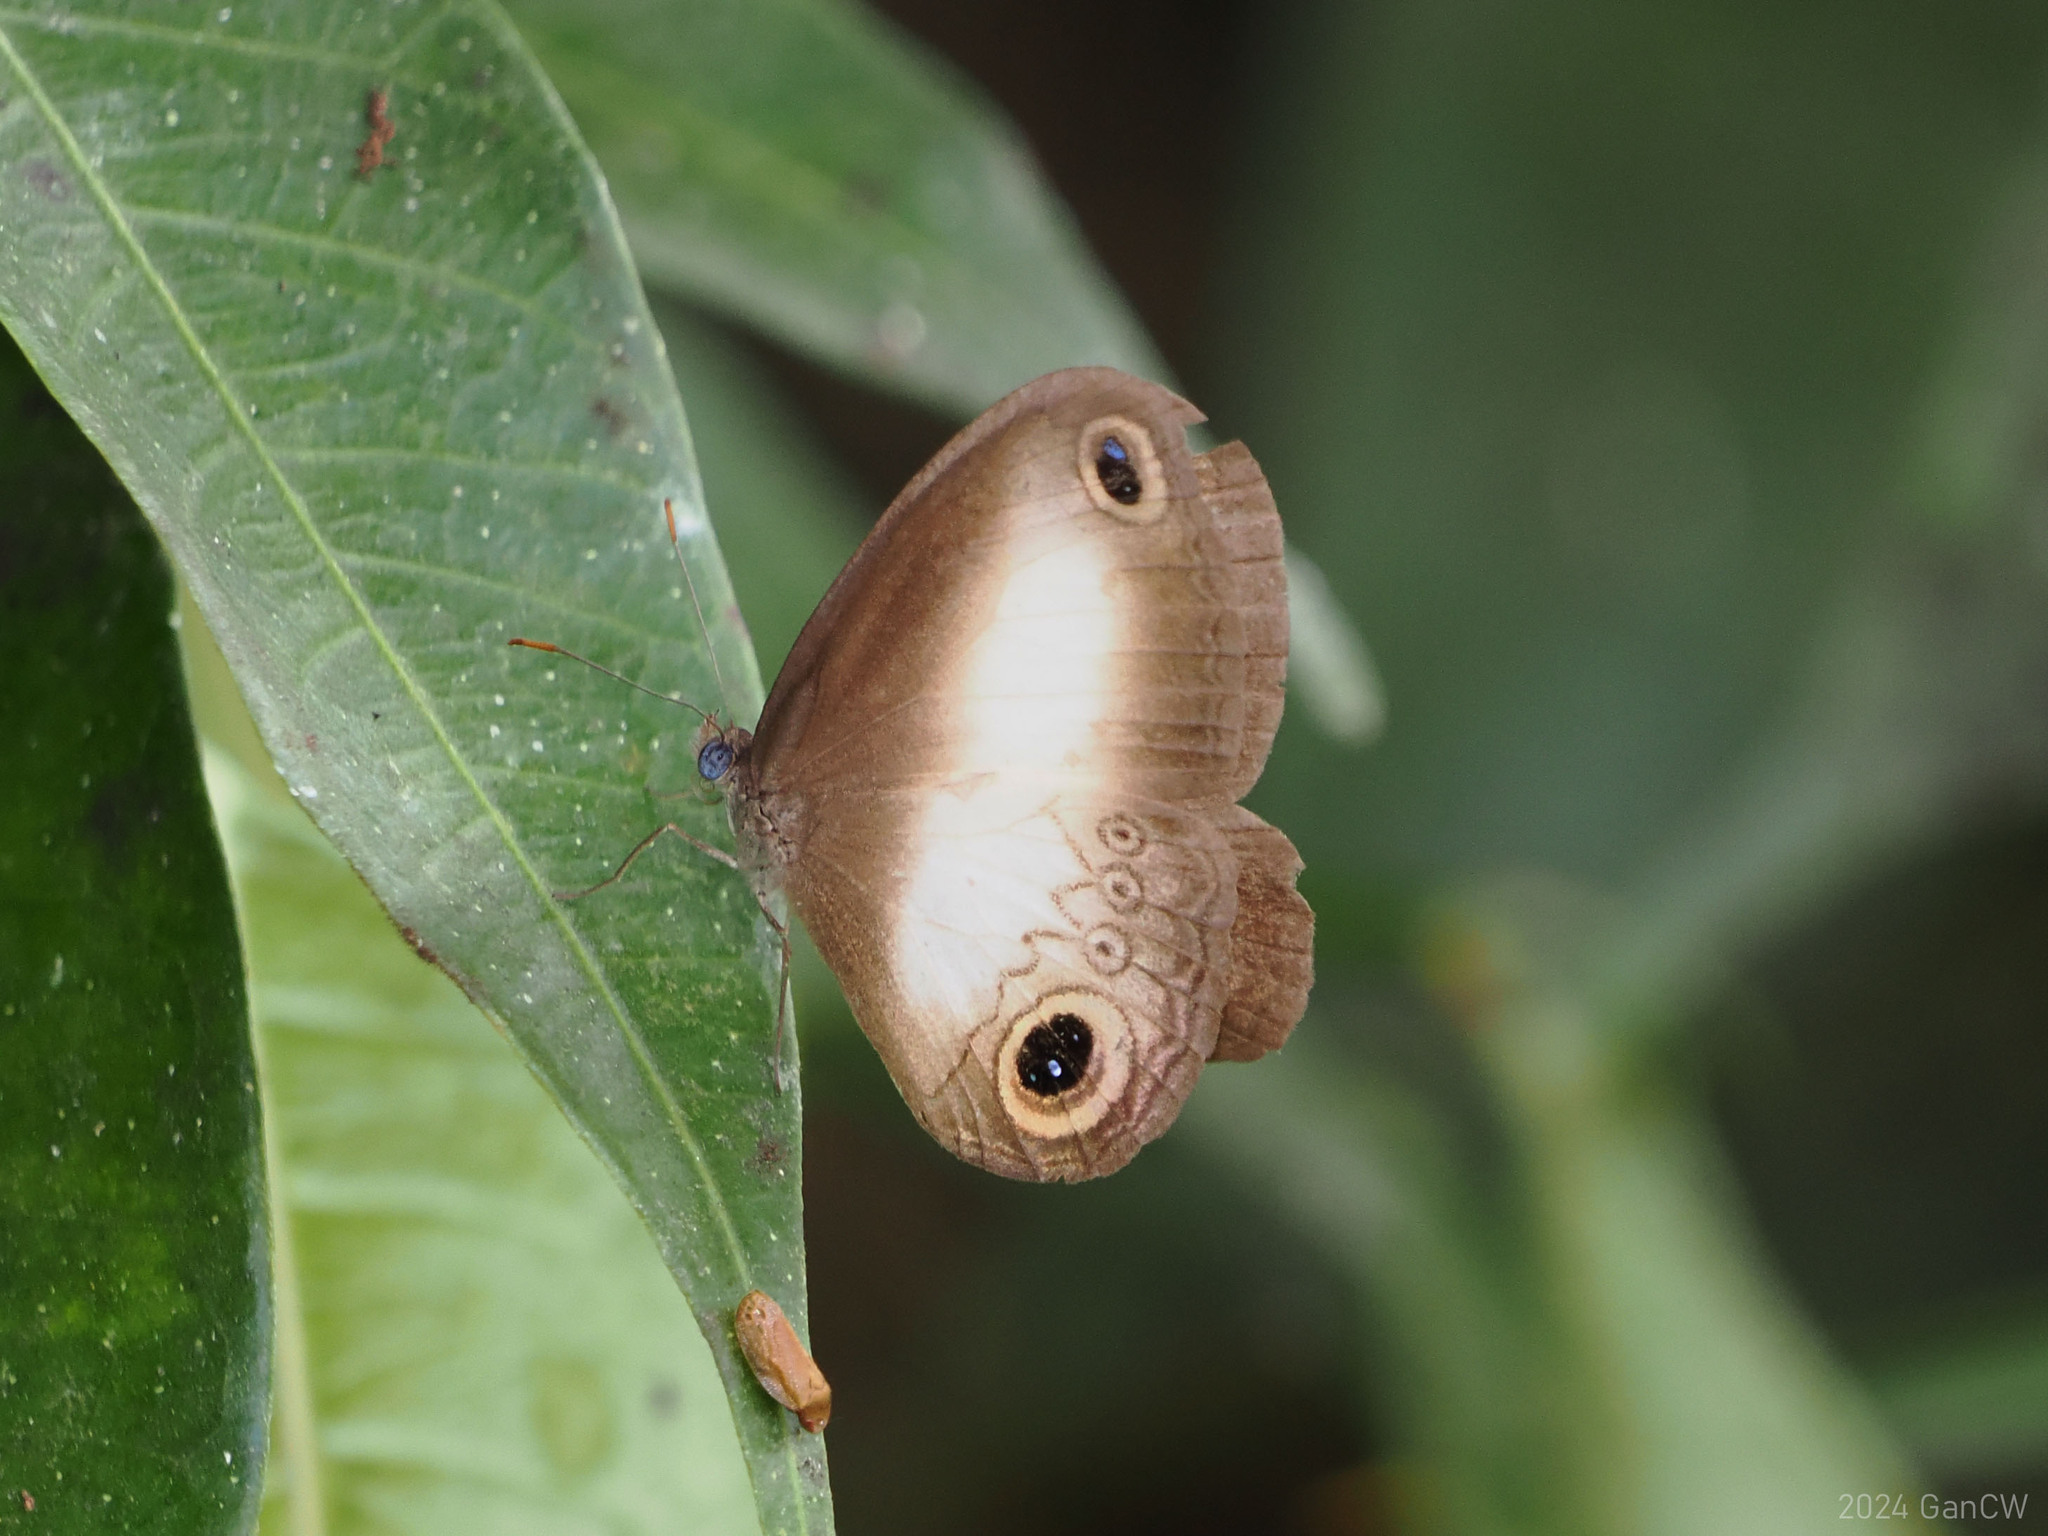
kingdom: Animalia
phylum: Arthropoda
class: Insecta
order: Lepidoptera
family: Nymphalidae
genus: Acrophtalmia
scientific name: Acrophtalmia artemis
